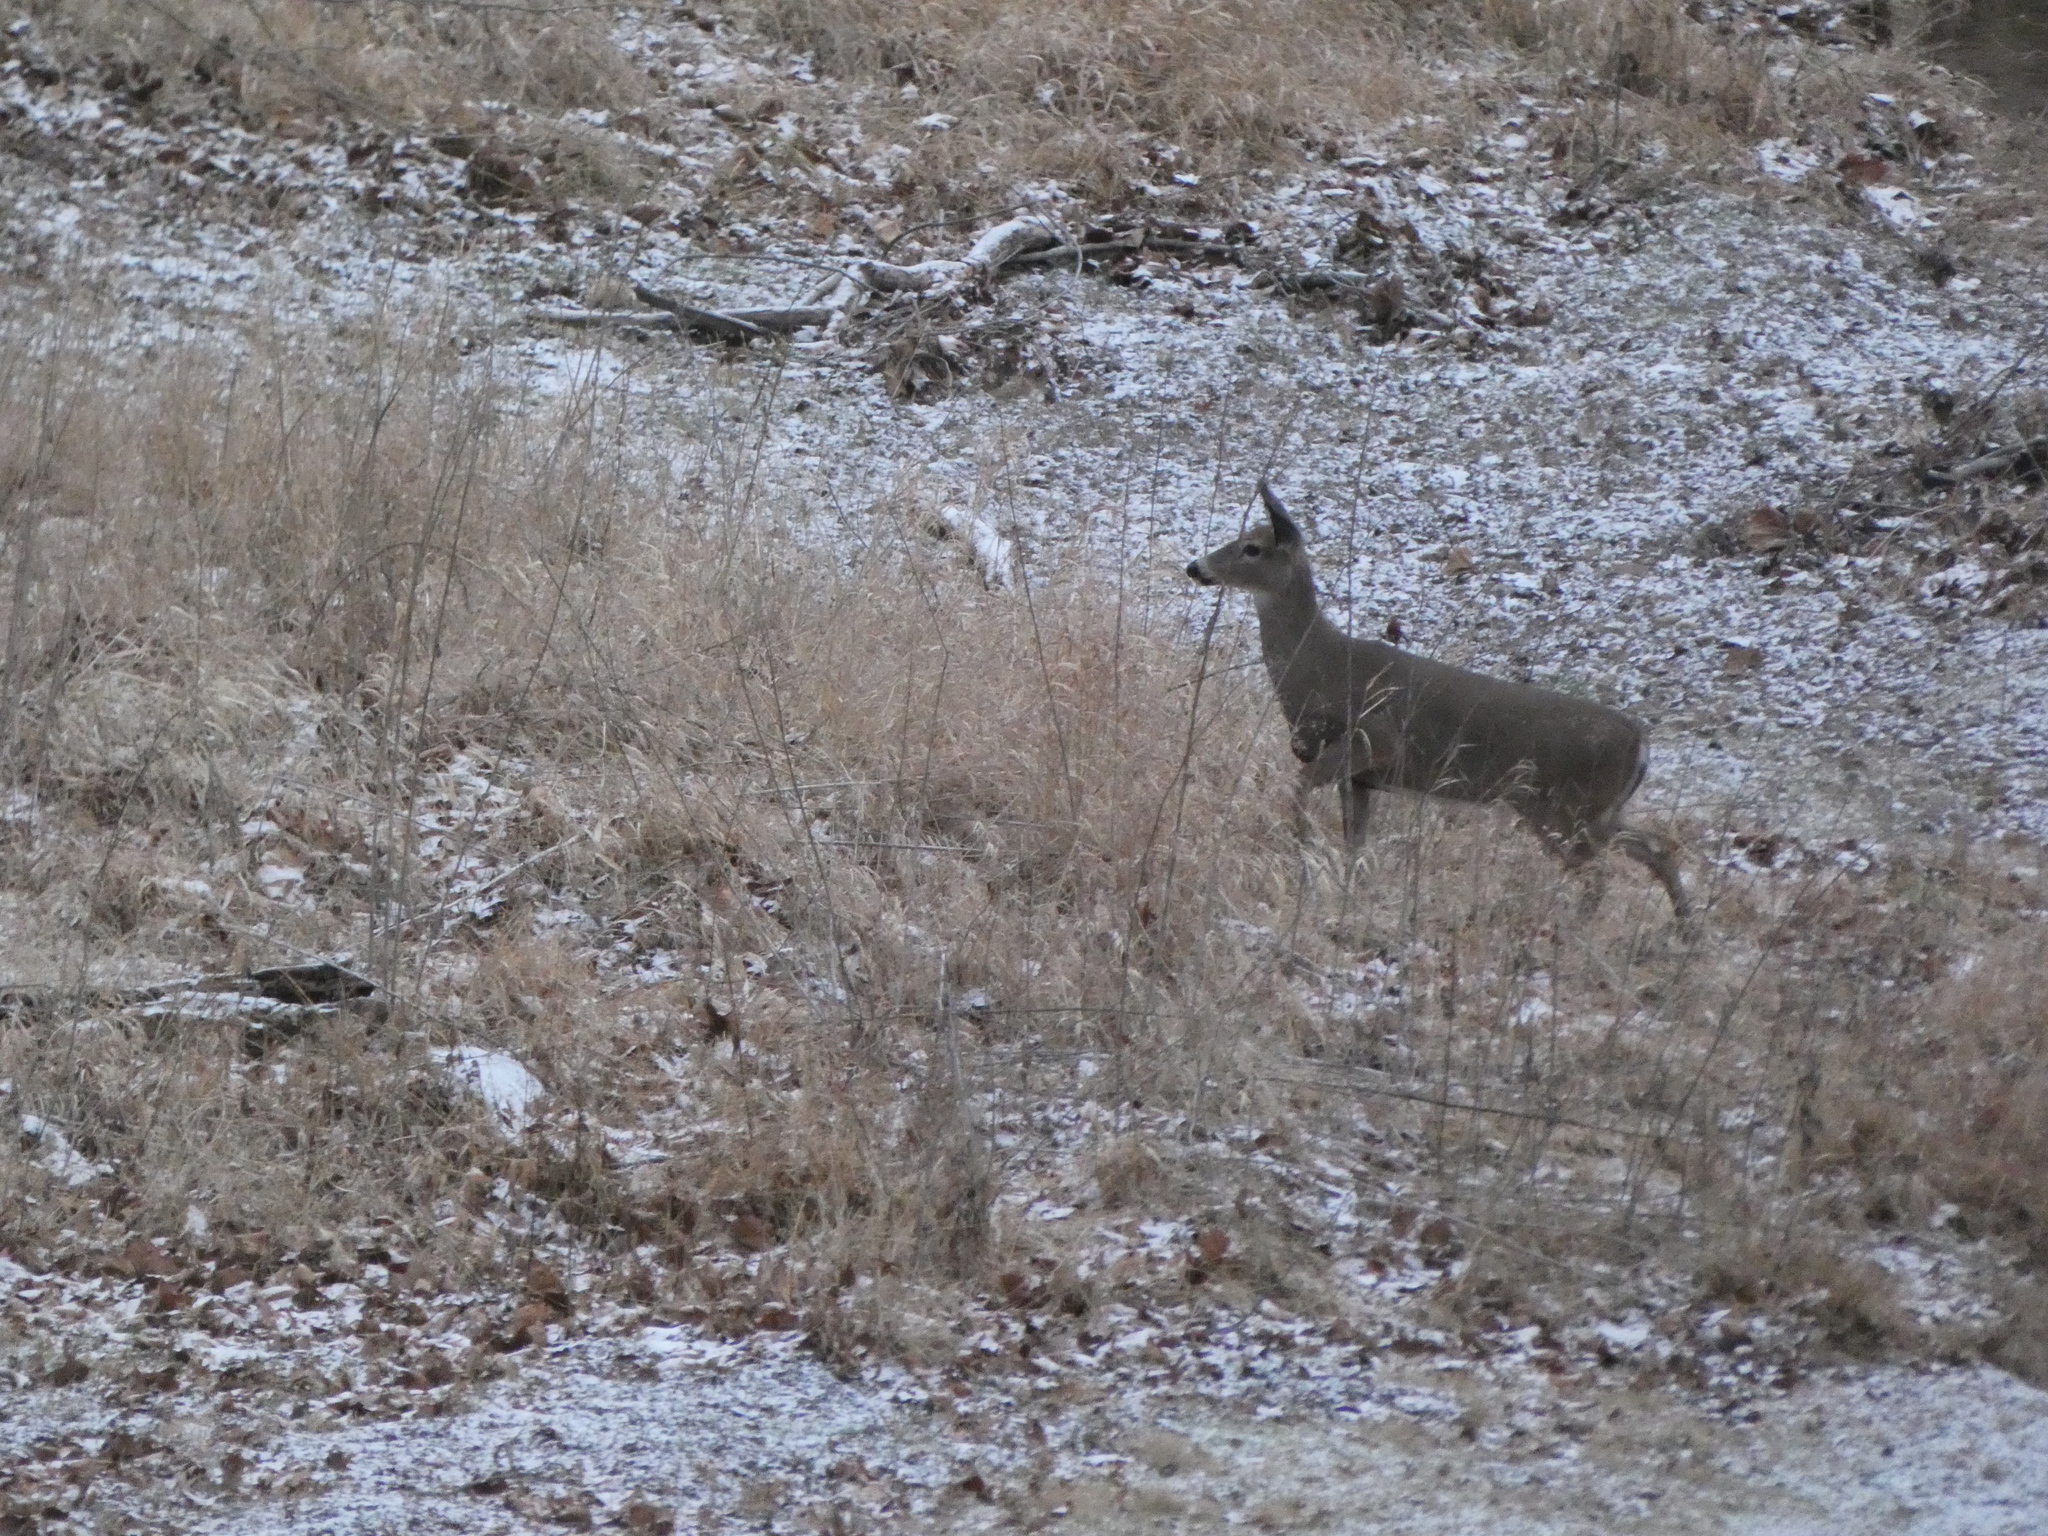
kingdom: Animalia
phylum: Chordata
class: Mammalia
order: Artiodactyla
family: Cervidae
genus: Odocoileus
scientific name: Odocoileus virginianus
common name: White-tailed deer
